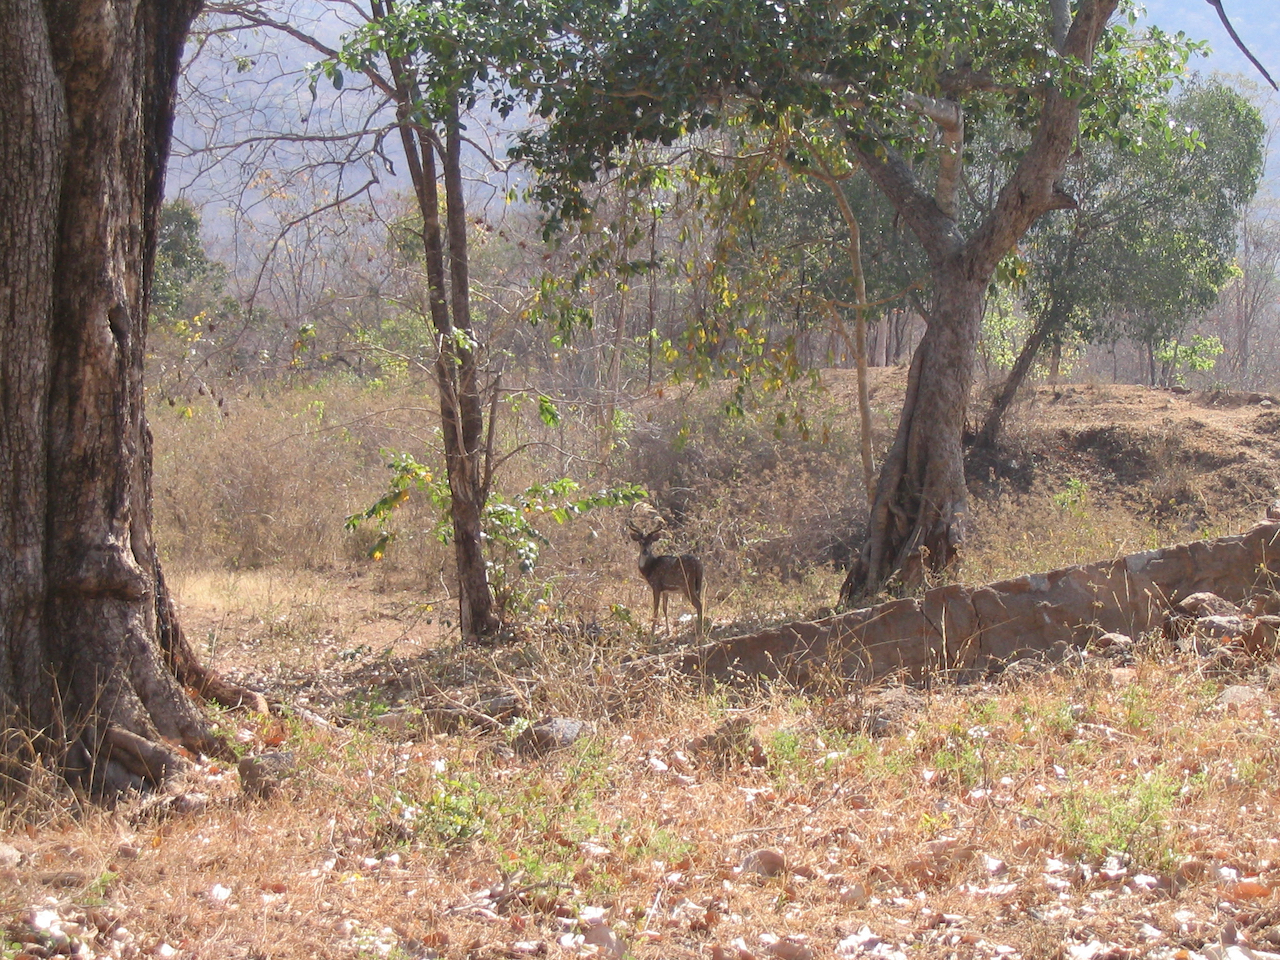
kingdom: Animalia
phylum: Chordata
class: Mammalia
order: Artiodactyla
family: Cervidae
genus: Axis
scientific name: Axis axis
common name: Chital
